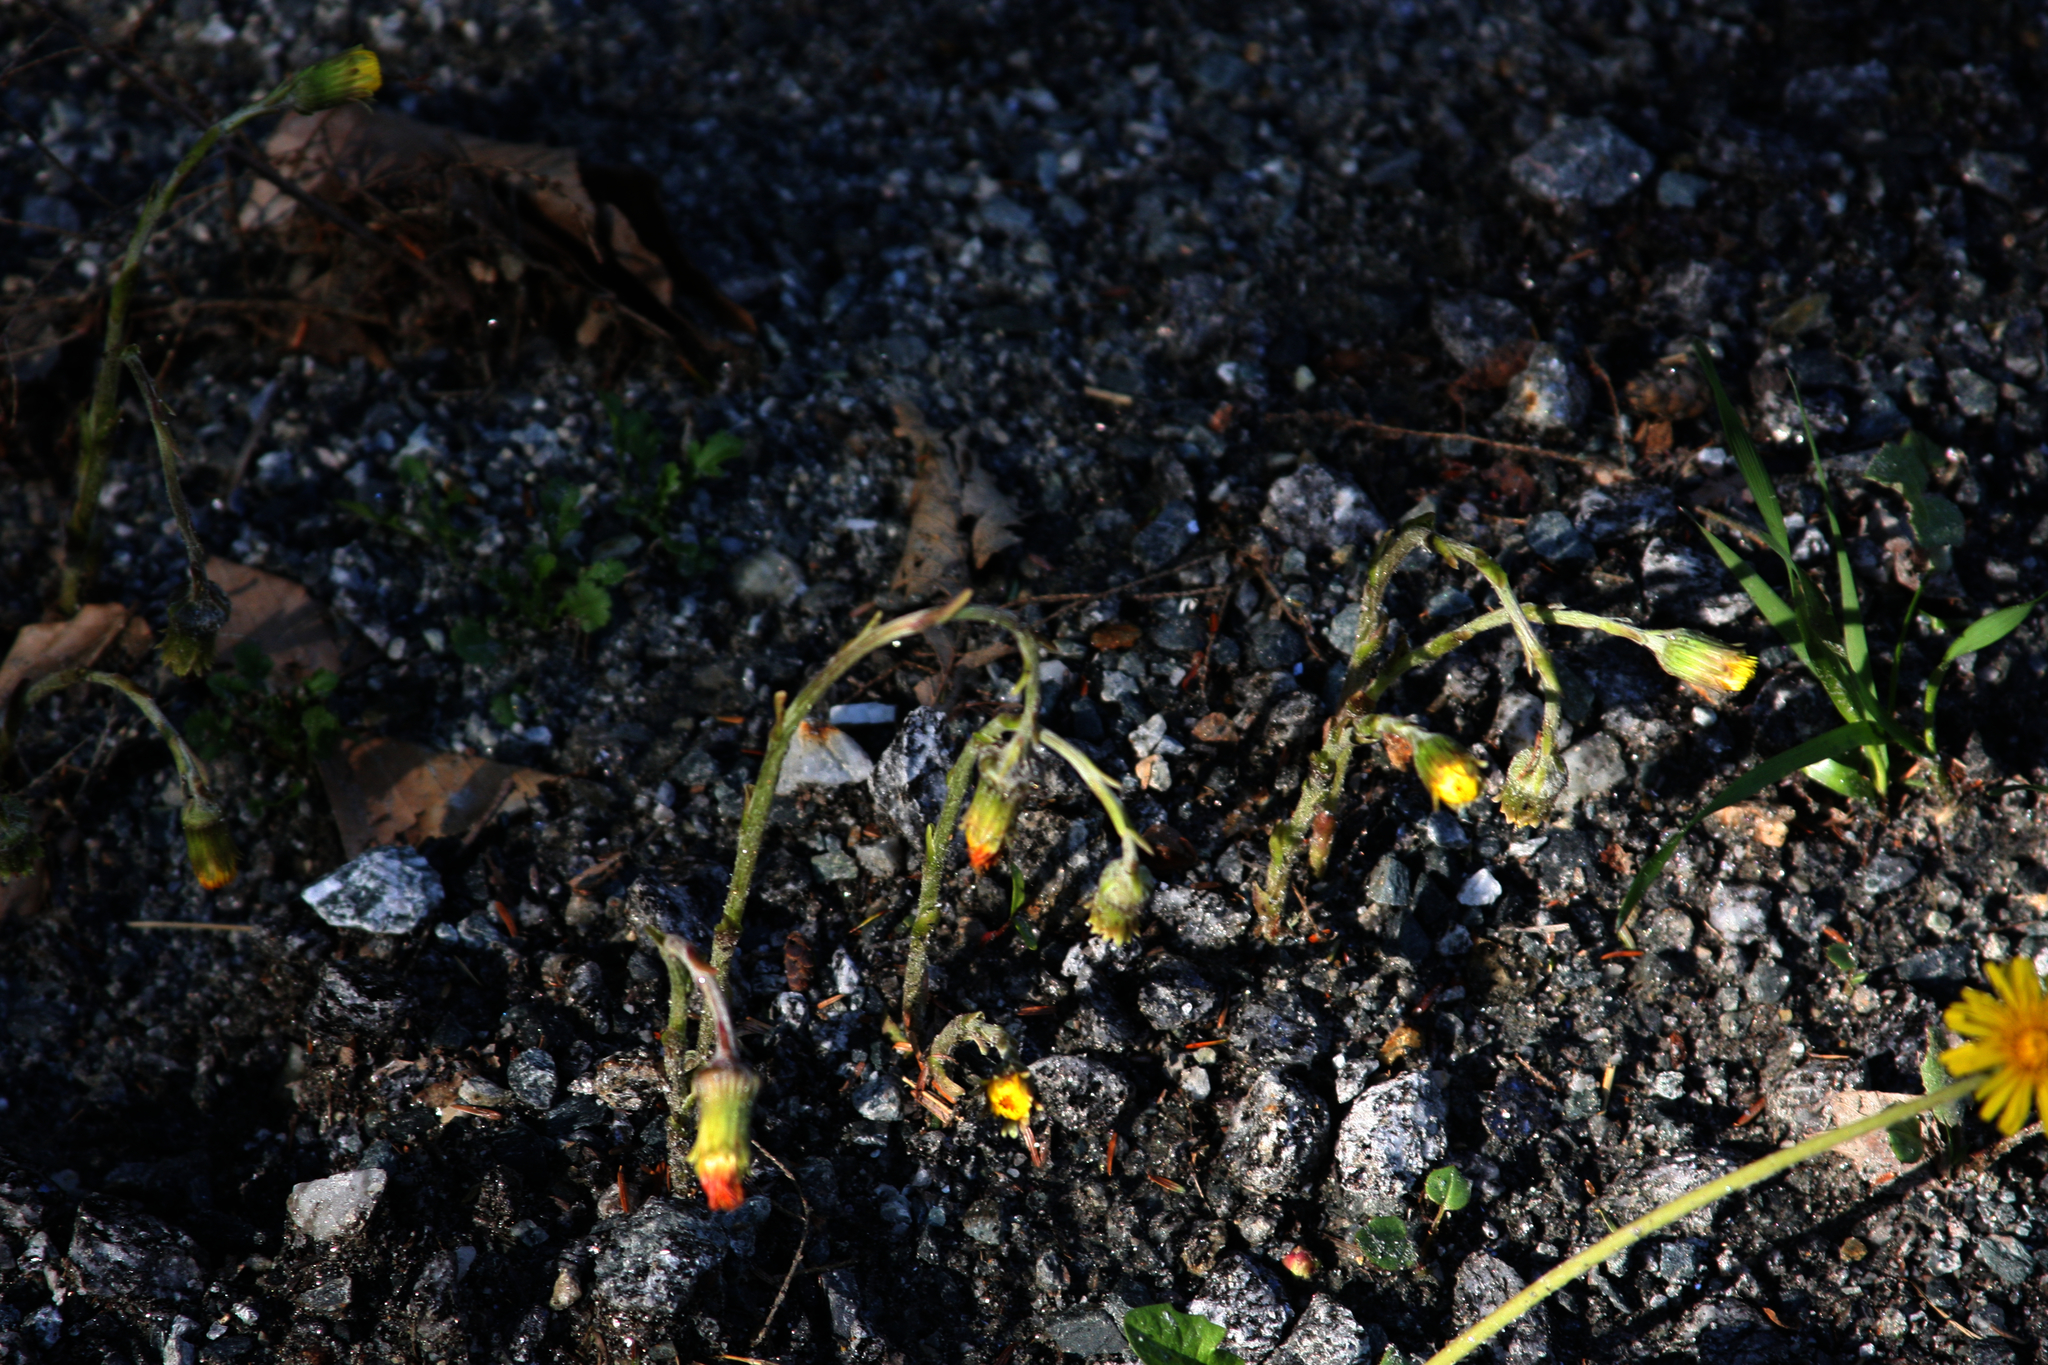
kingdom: Plantae
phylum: Tracheophyta
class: Magnoliopsida
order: Asterales
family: Asteraceae
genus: Tussilago
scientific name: Tussilago farfara
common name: Coltsfoot
